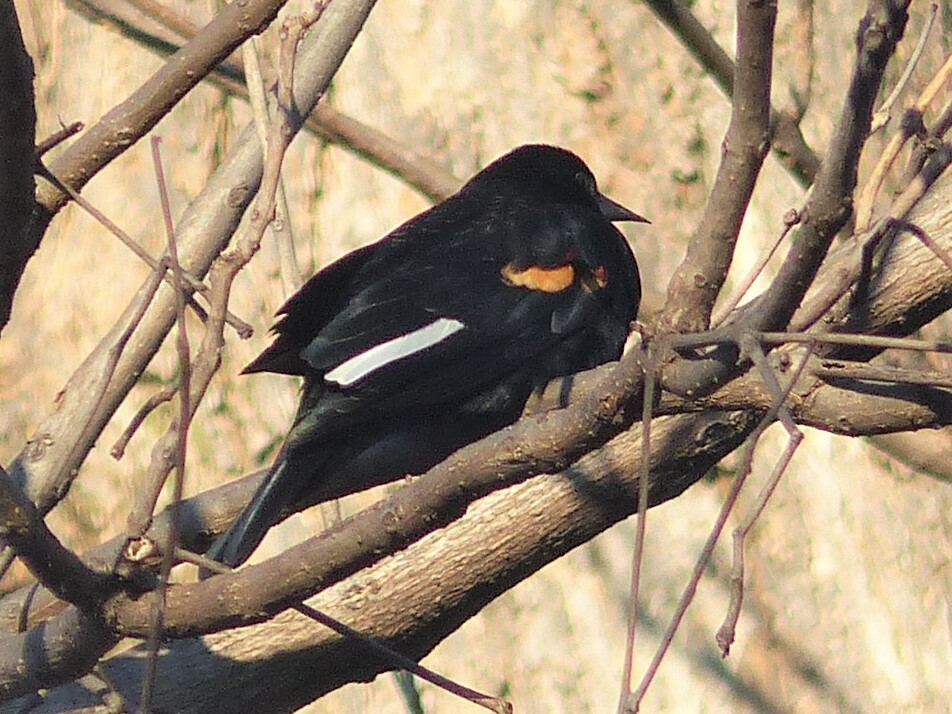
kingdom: Animalia
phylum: Chordata
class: Aves
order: Passeriformes
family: Icteridae
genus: Agelaius
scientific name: Agelaius phoeniceus
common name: Red-winged blackbird
